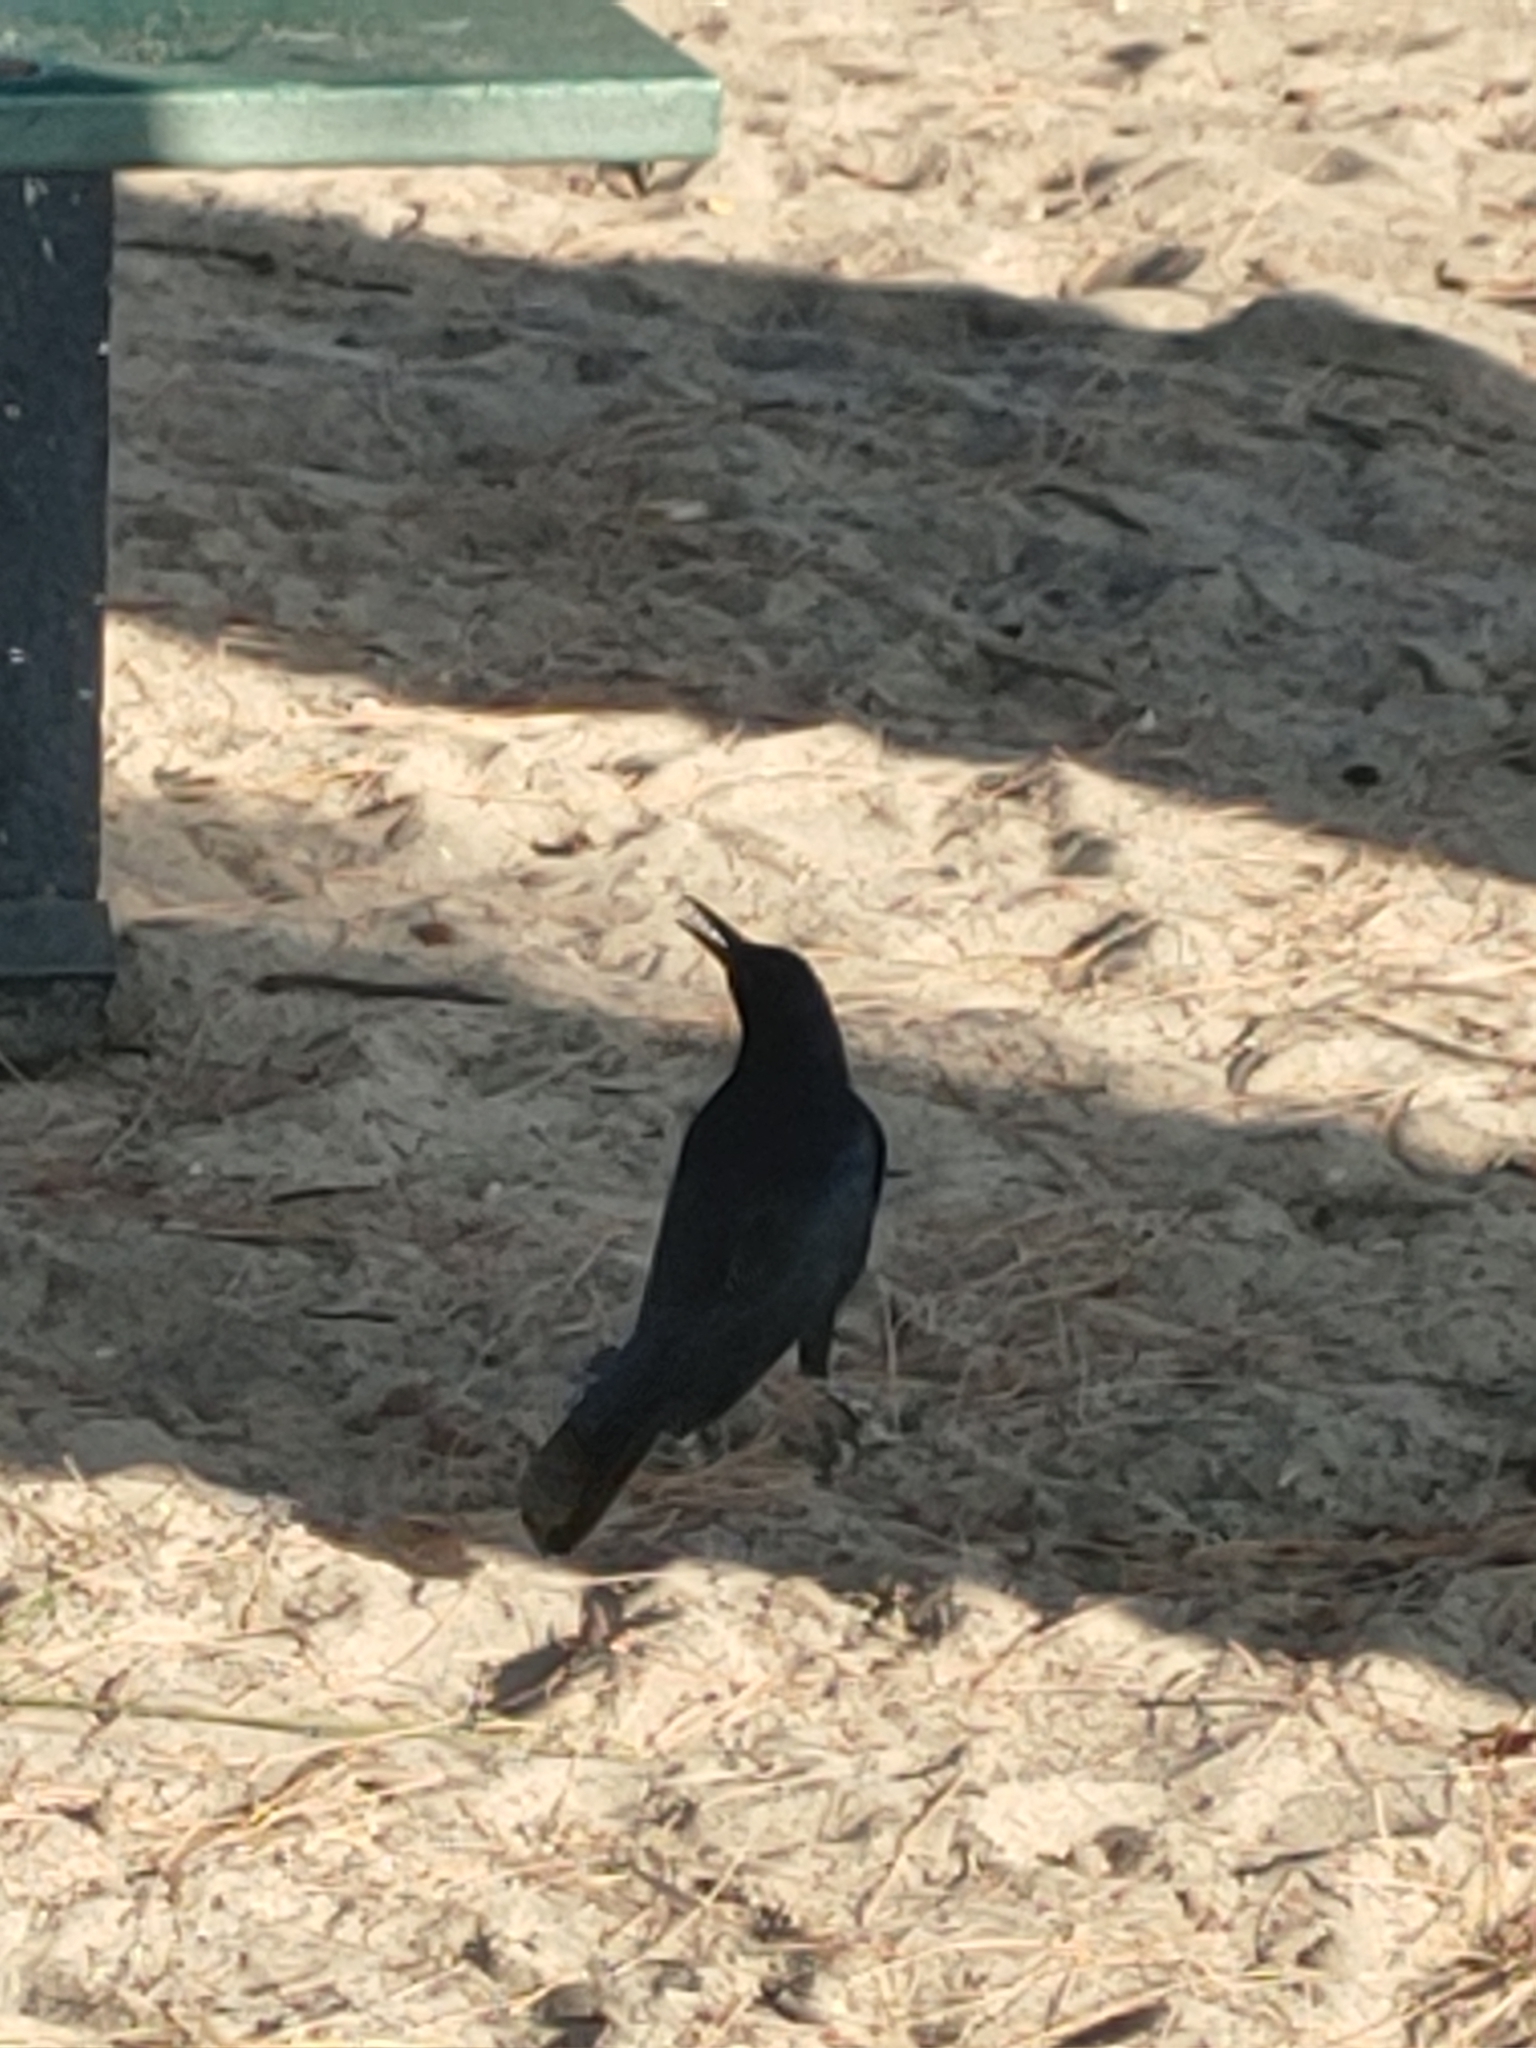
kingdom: Animalia
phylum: Chordata
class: Aves
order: Passeriformes
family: Icteridae
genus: Quiscalus
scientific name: Quiscalus major
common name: Boat-tailed grackle
